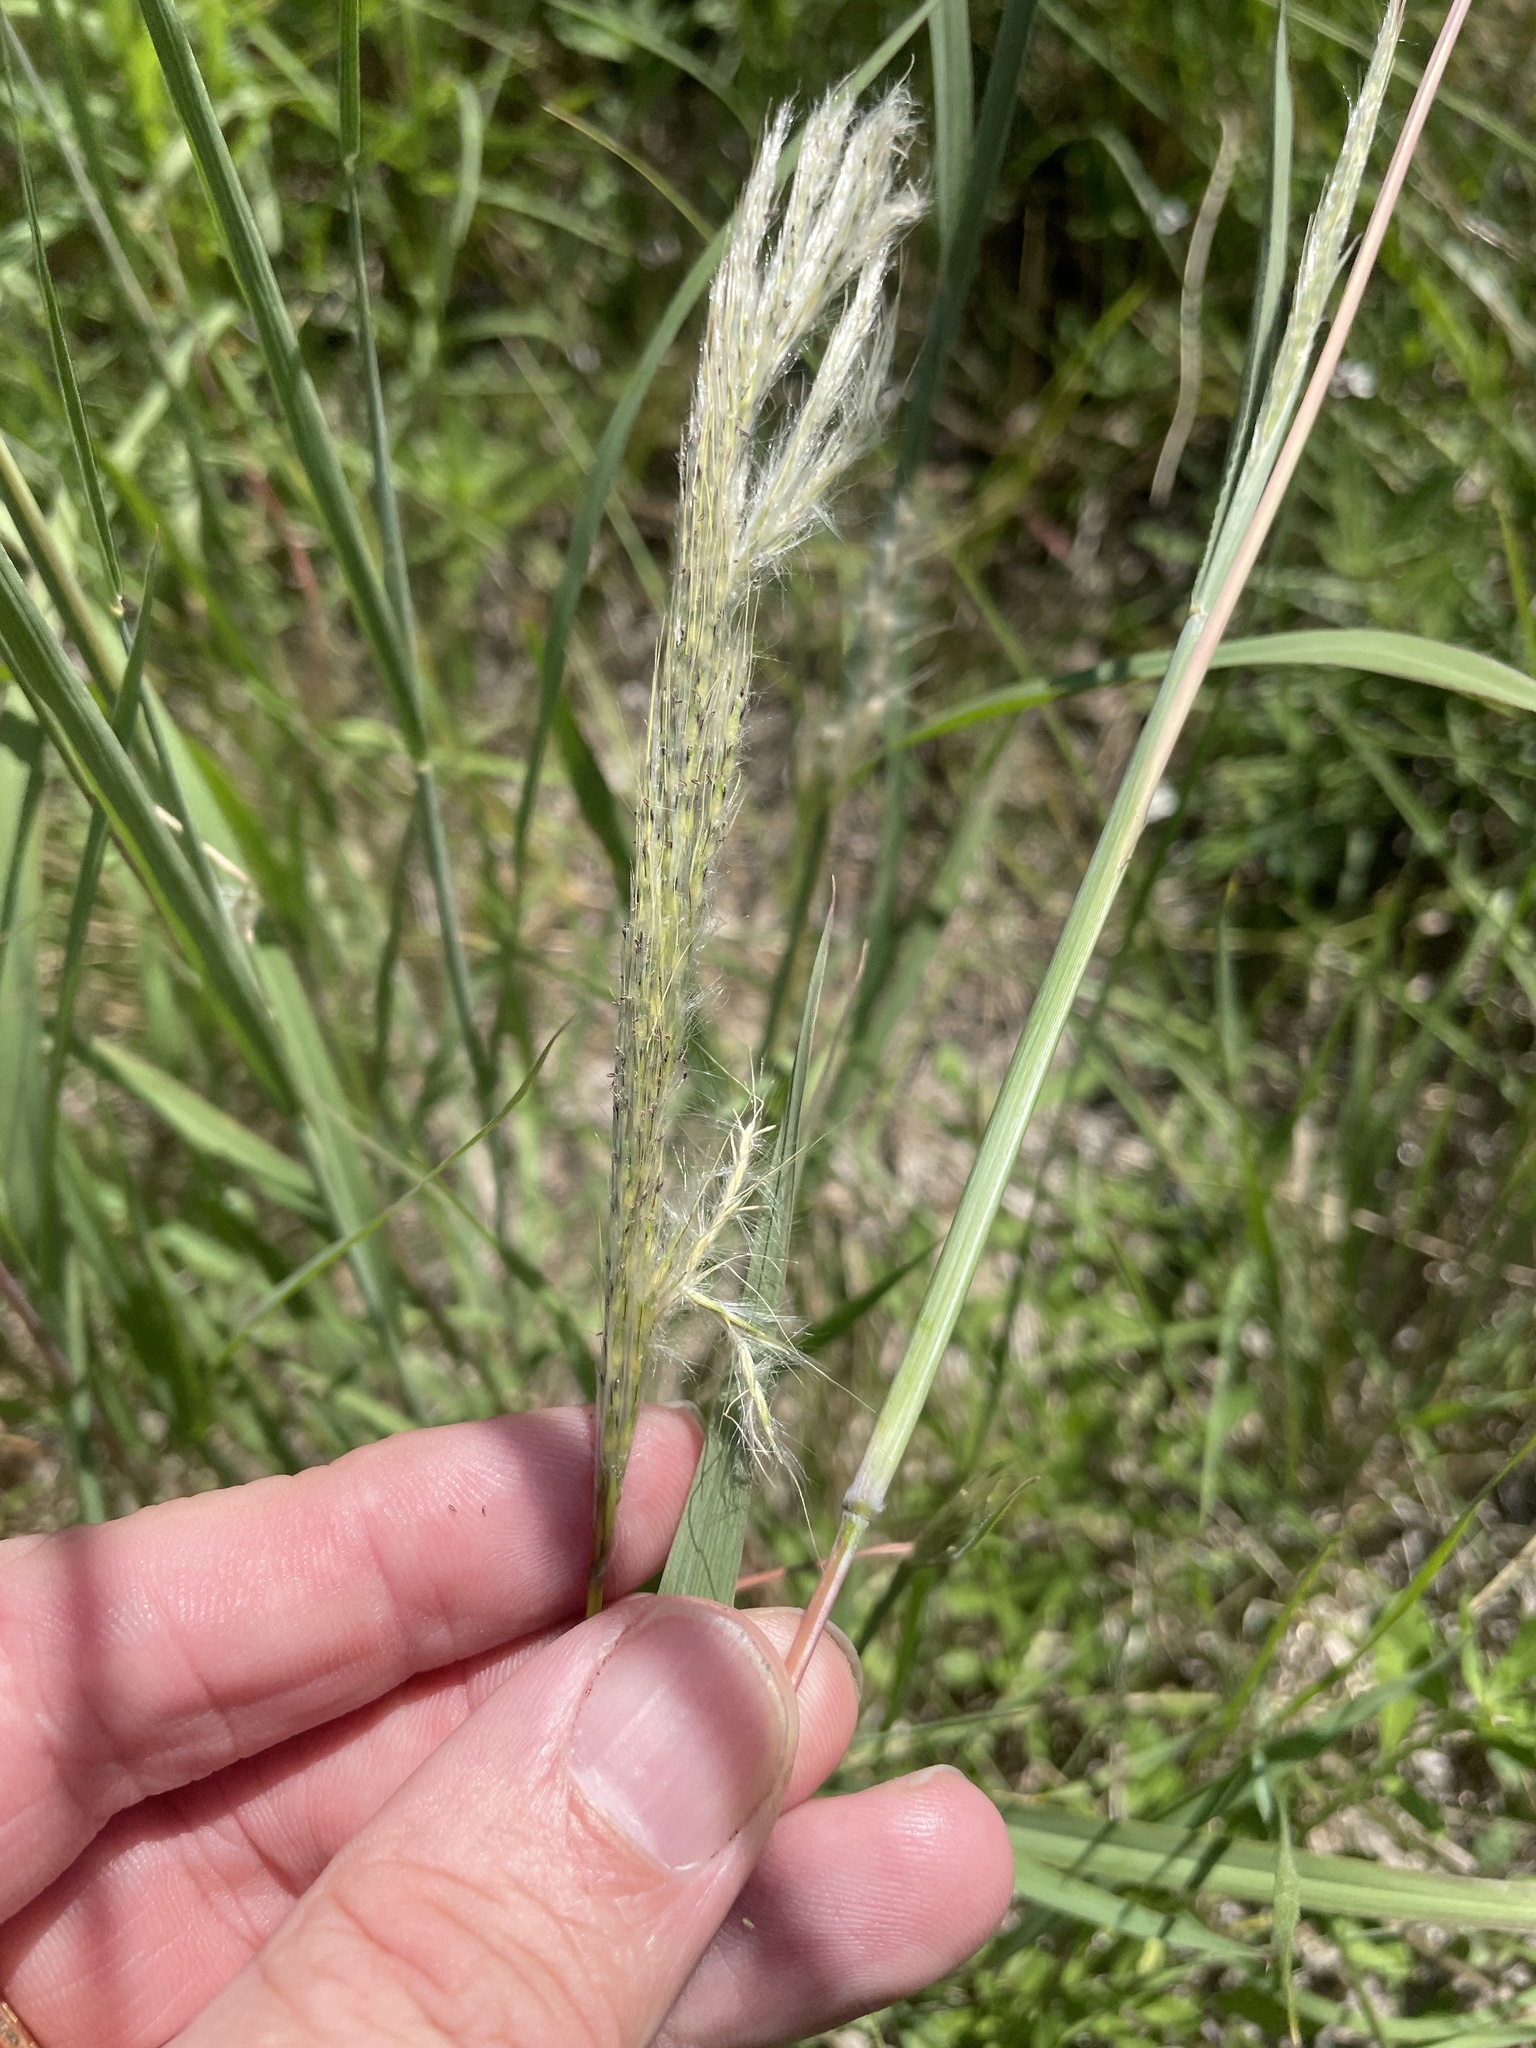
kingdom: Plantae
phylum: Tracheophyta
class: Liliopsida
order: Poales
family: Poaceae
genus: Bothriochloa
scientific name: Bothriochloa torreyana
